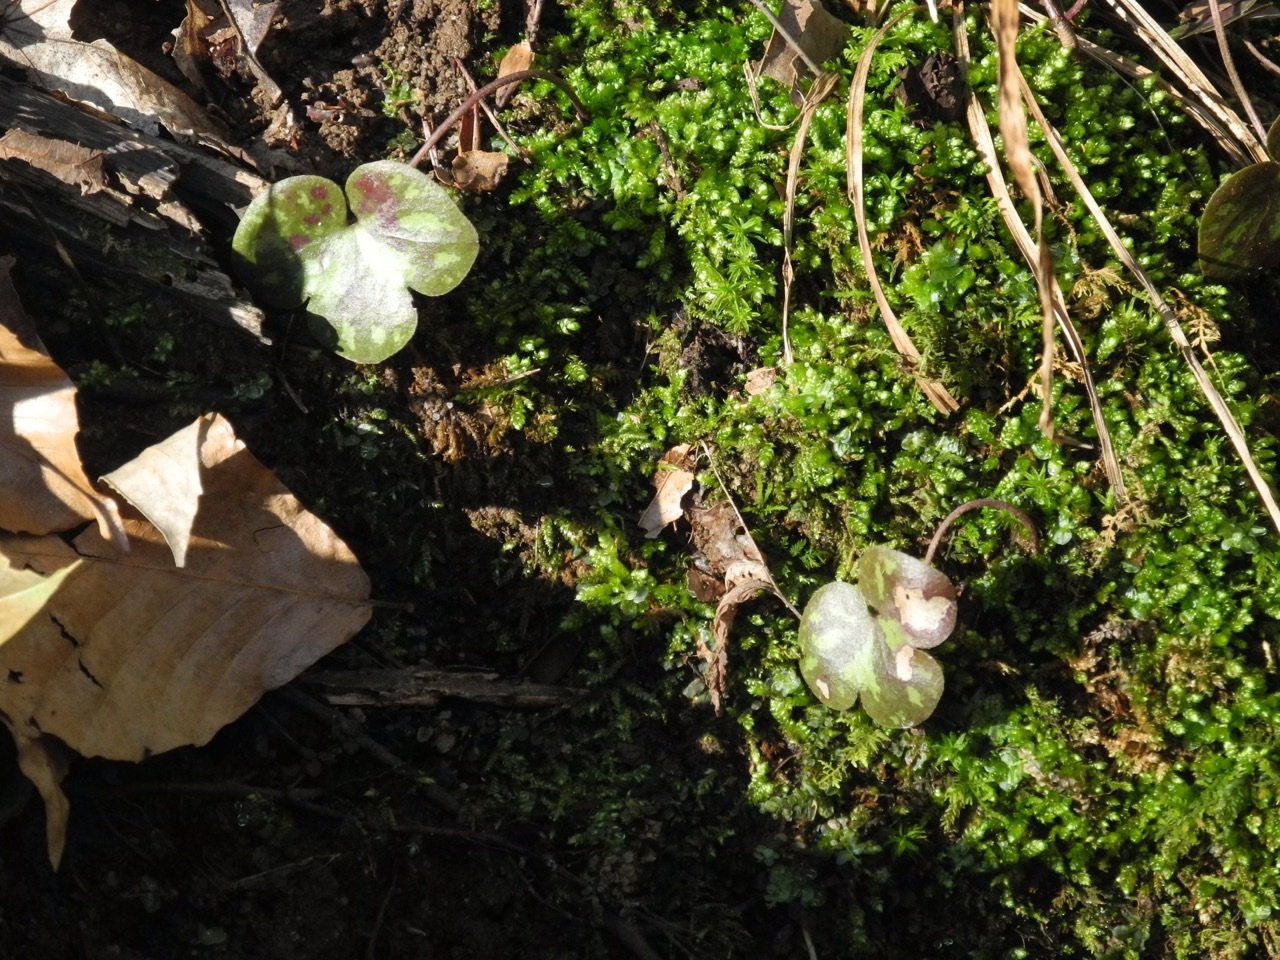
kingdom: Plantae
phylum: Tracheophyta
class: Magnoliopsida
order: Ranunculales
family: Ranunculaceae
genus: Hepatica
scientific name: Hepatica americana
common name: American hepatica
